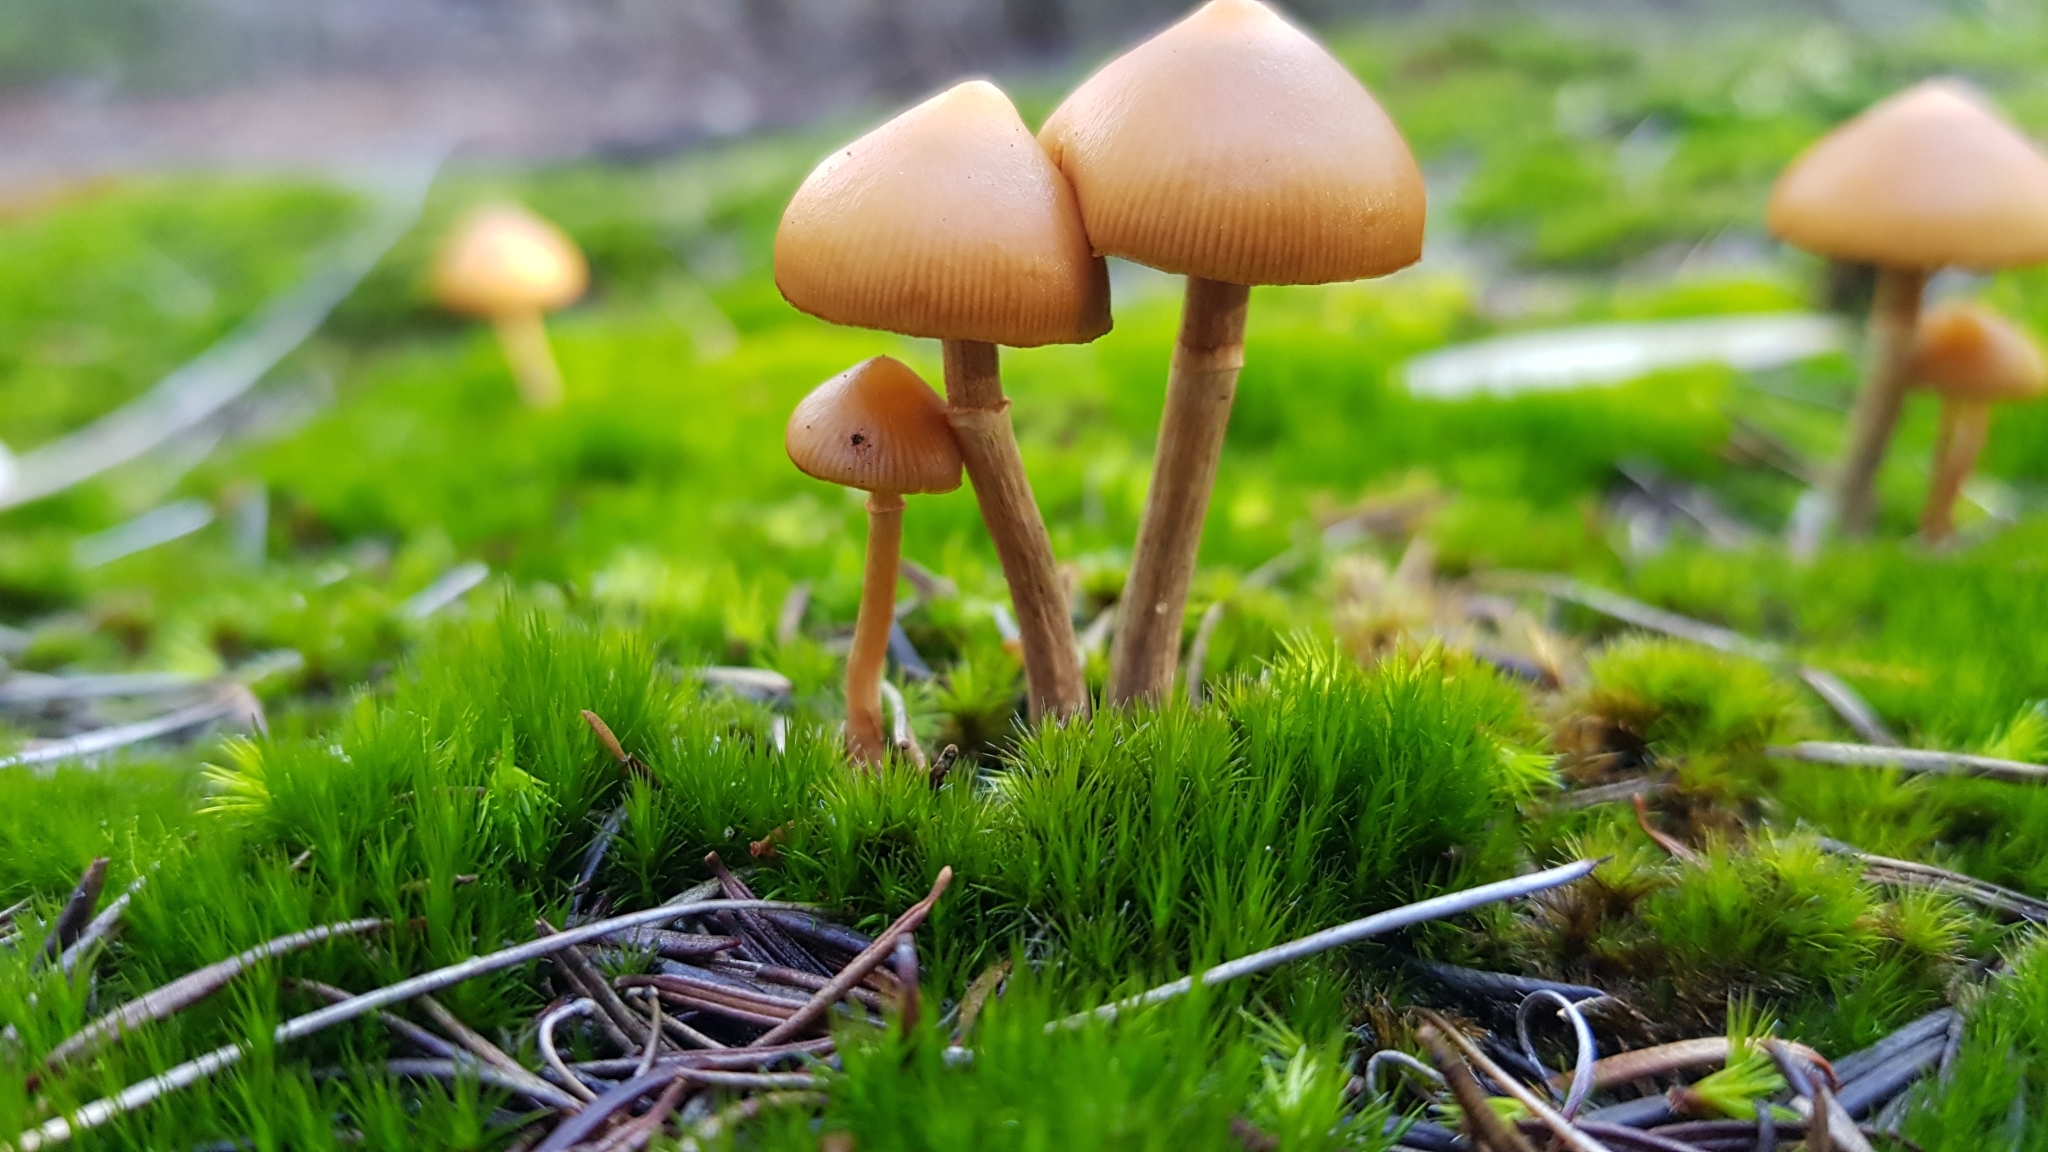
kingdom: Fungi
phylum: Basidiomycota
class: Agaricomycetes
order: Agaricales
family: Hymenogastraceae
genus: Galerina
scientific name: Galerina patagonica
